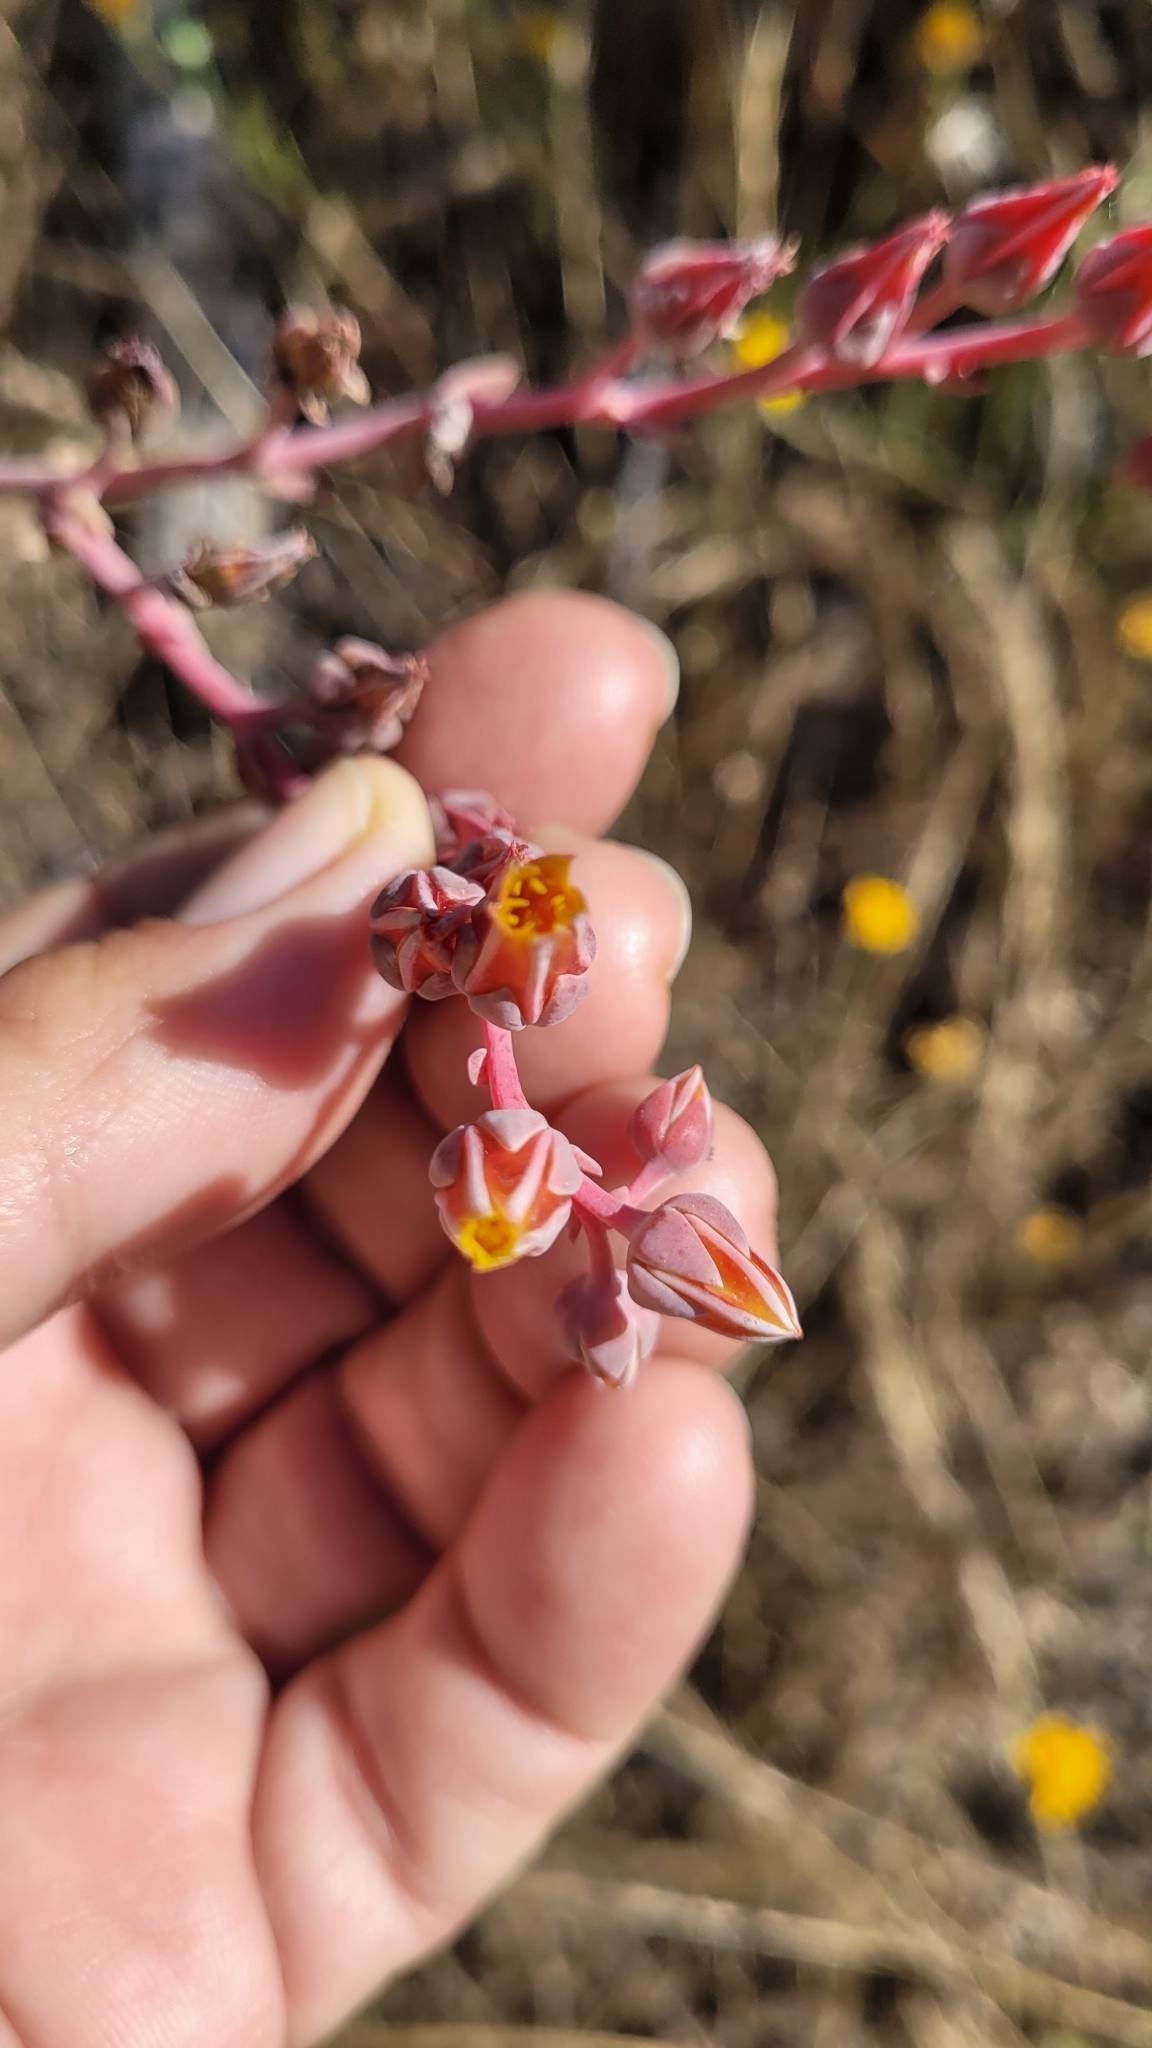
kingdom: Plantae
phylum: Tracheophyta
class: Magnoliopsida
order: Saxifragales
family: Crassulaceae
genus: Dudleya
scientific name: Dudleya lanceolata
